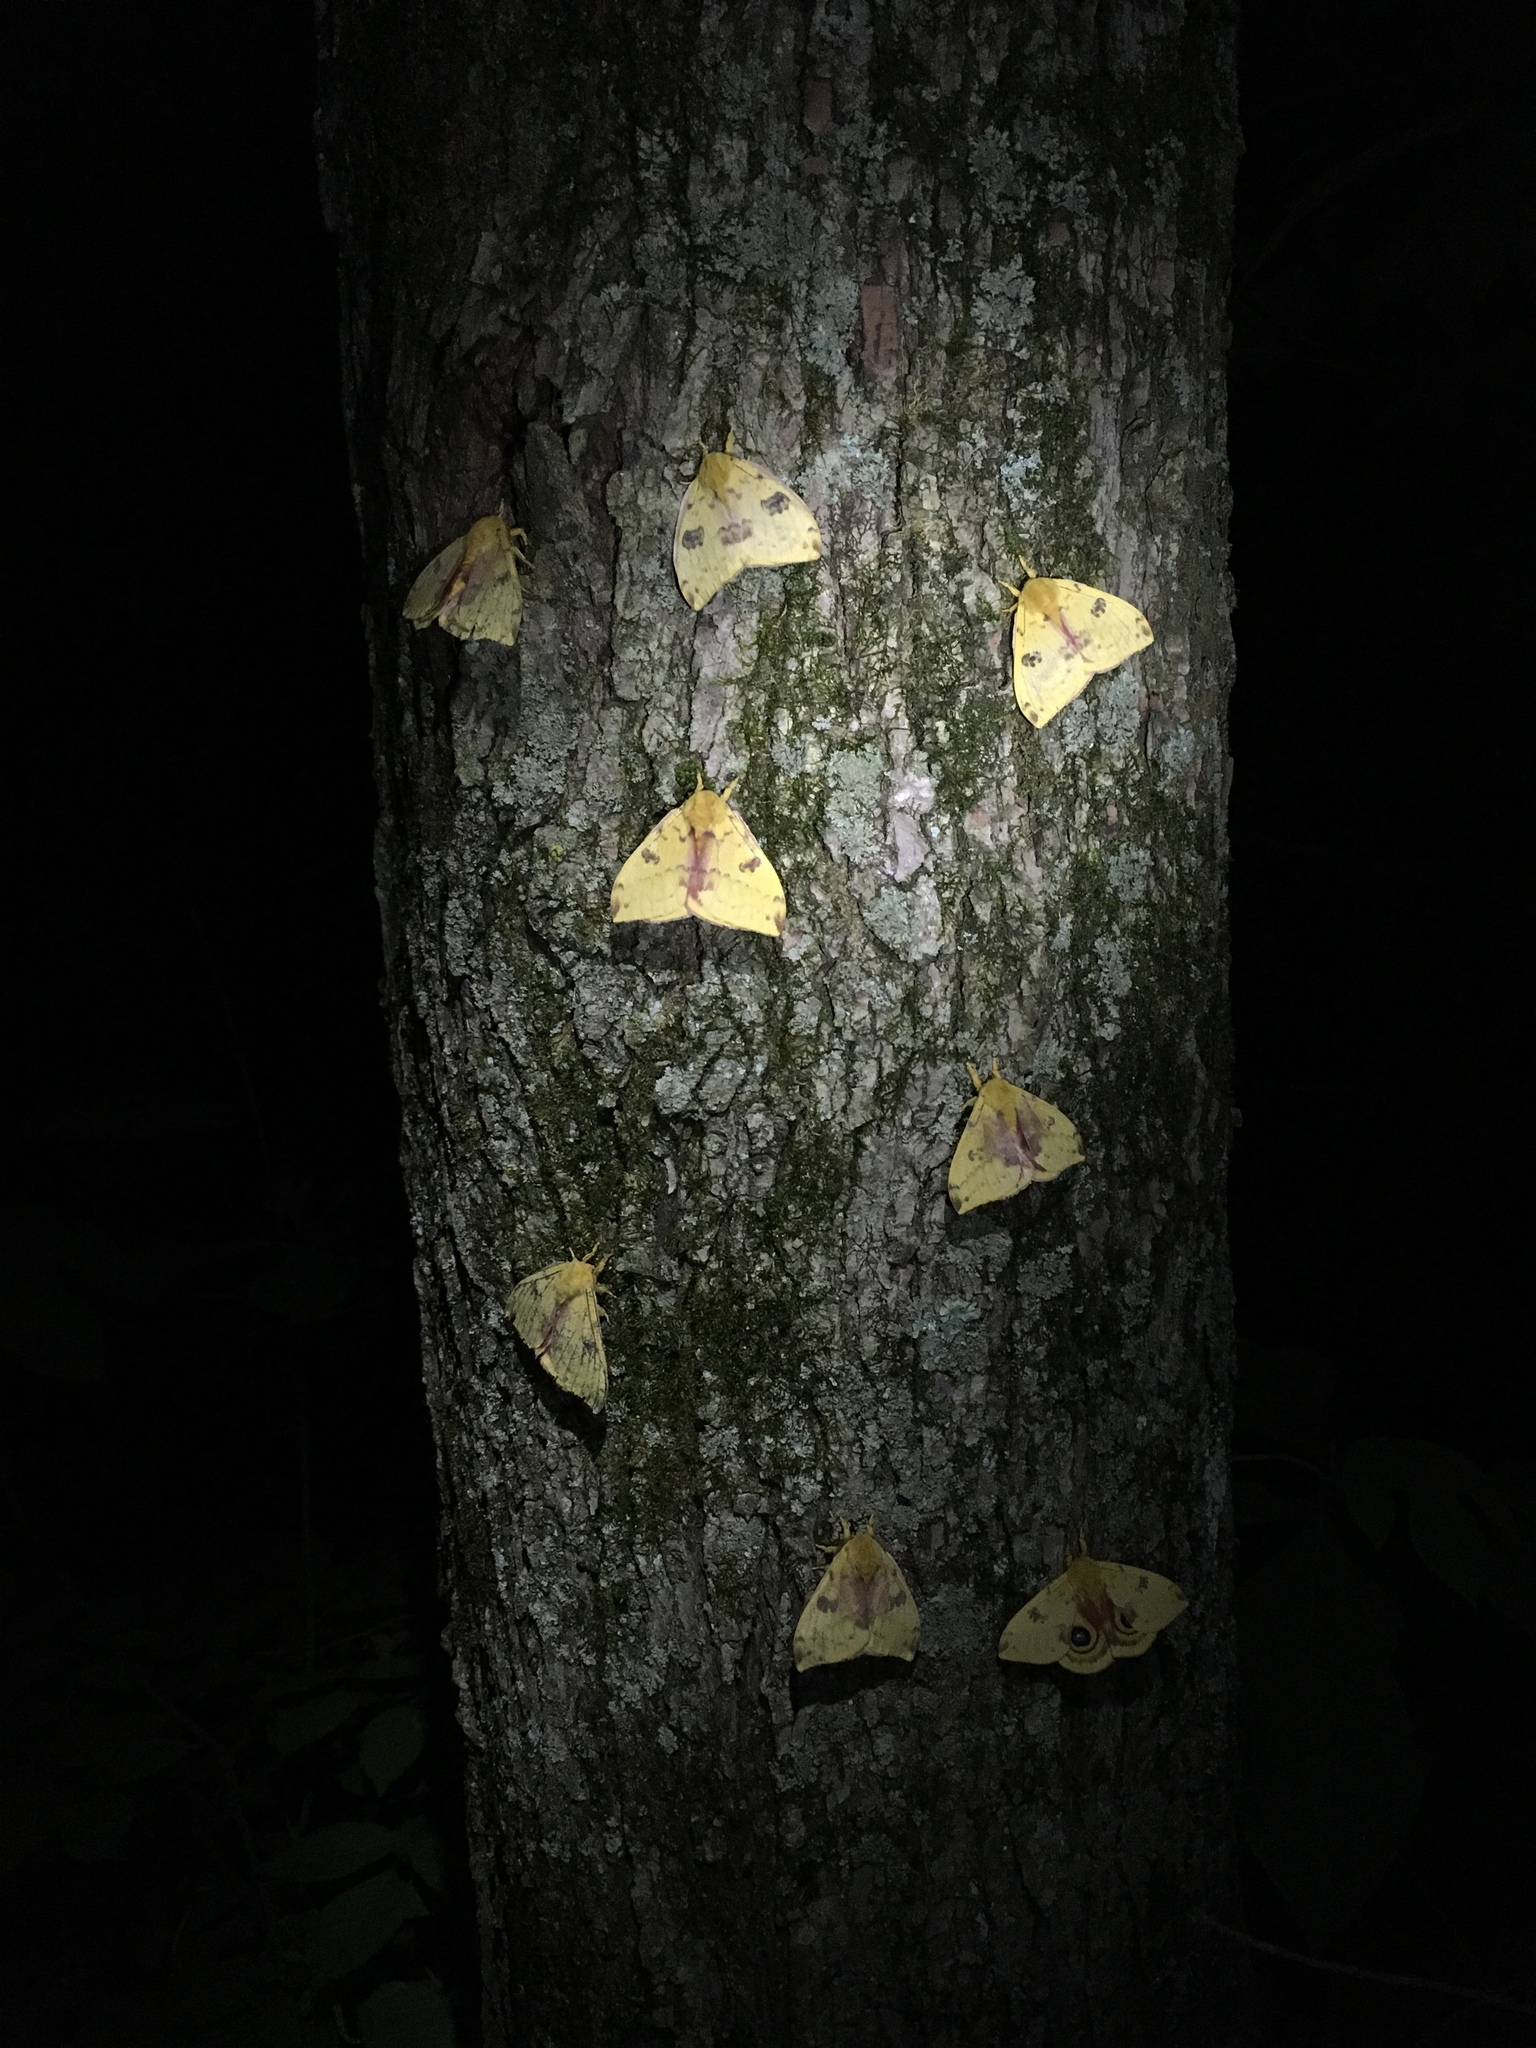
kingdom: Animalia
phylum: Arthropoda
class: Insecta
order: Lepidoptera
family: Saturniidae
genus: Automeris
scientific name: Automeris io
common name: Io moth
